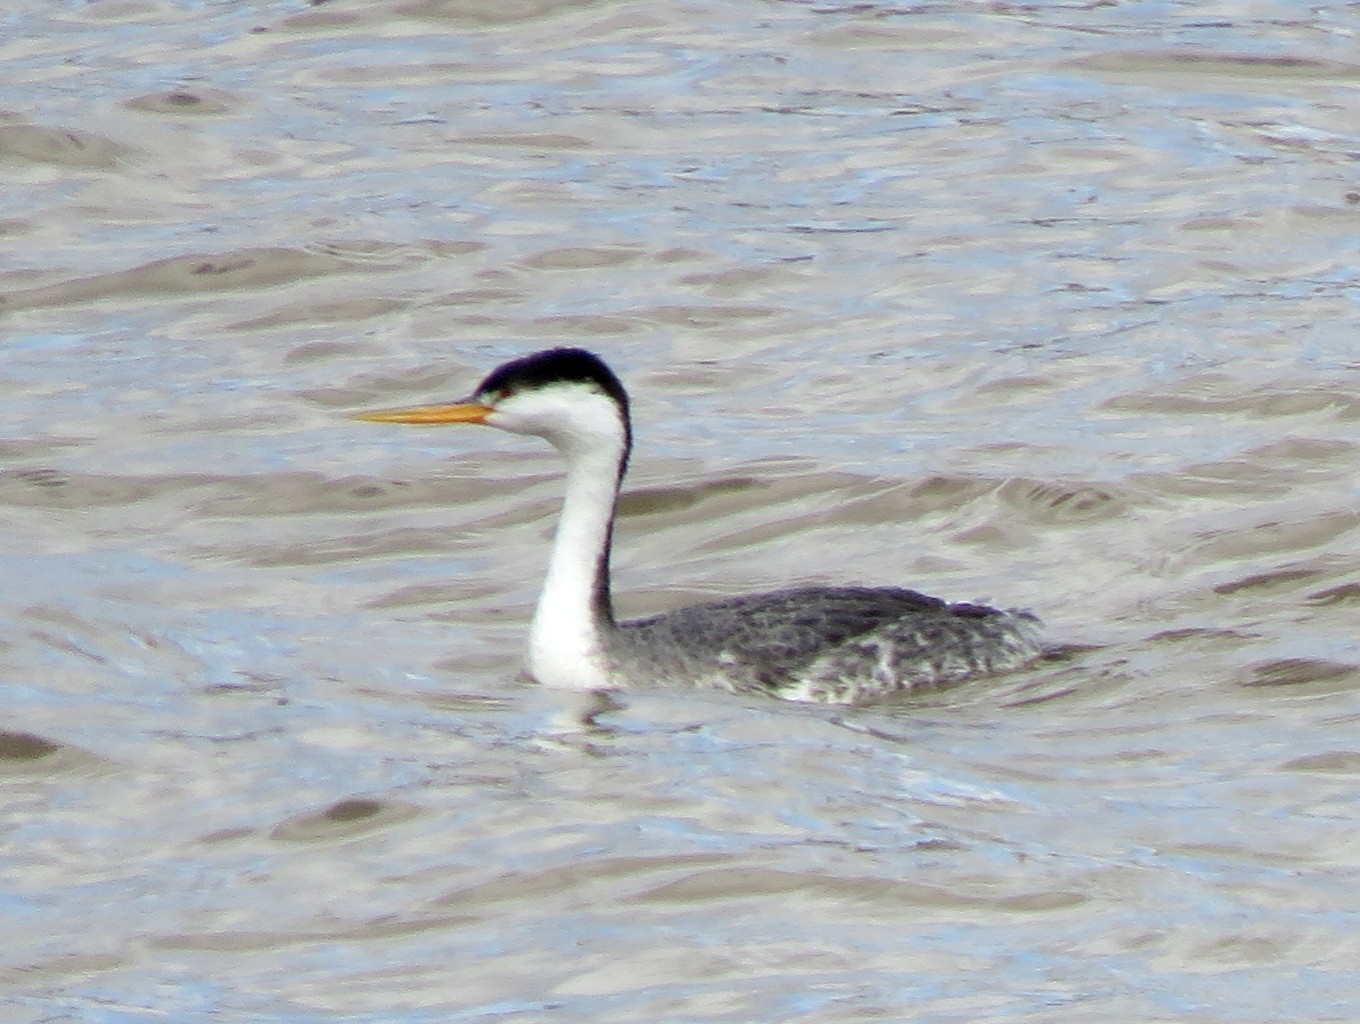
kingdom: Animalia
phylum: Chordata
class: Aves
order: Podicipediformes
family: Podicipedidae
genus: Aechmophorus
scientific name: Aechmophorus clarkii
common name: Clark's grebe
